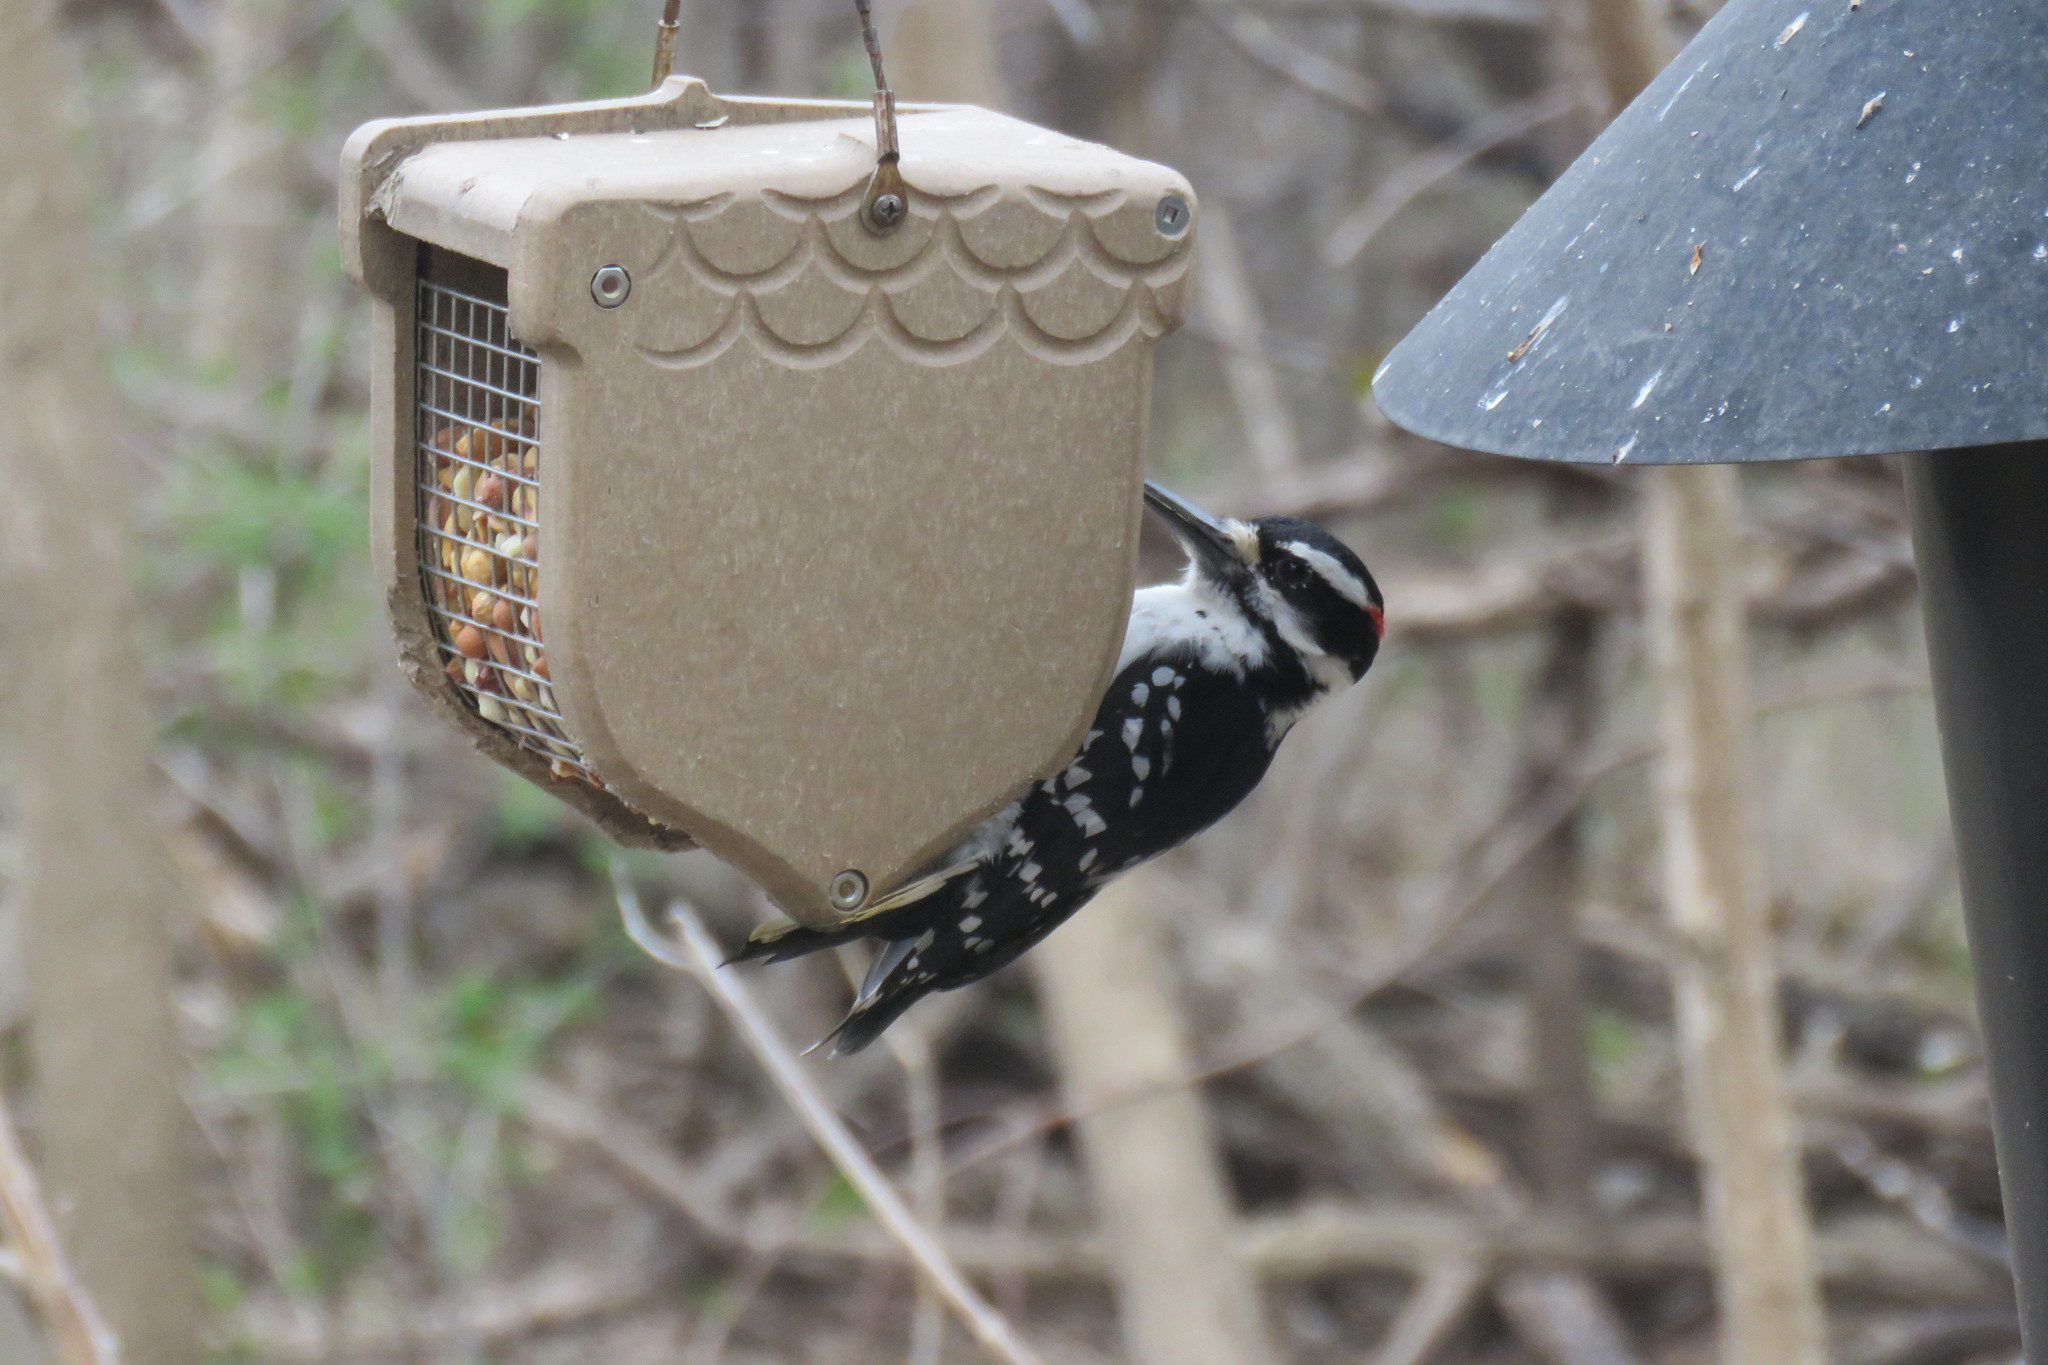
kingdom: Animalia
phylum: Chordata
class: Aves
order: Piciformes
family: Picidae
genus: Leuconotopicus
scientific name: Leuconotopicus villosus
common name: Hairy woodpecker
